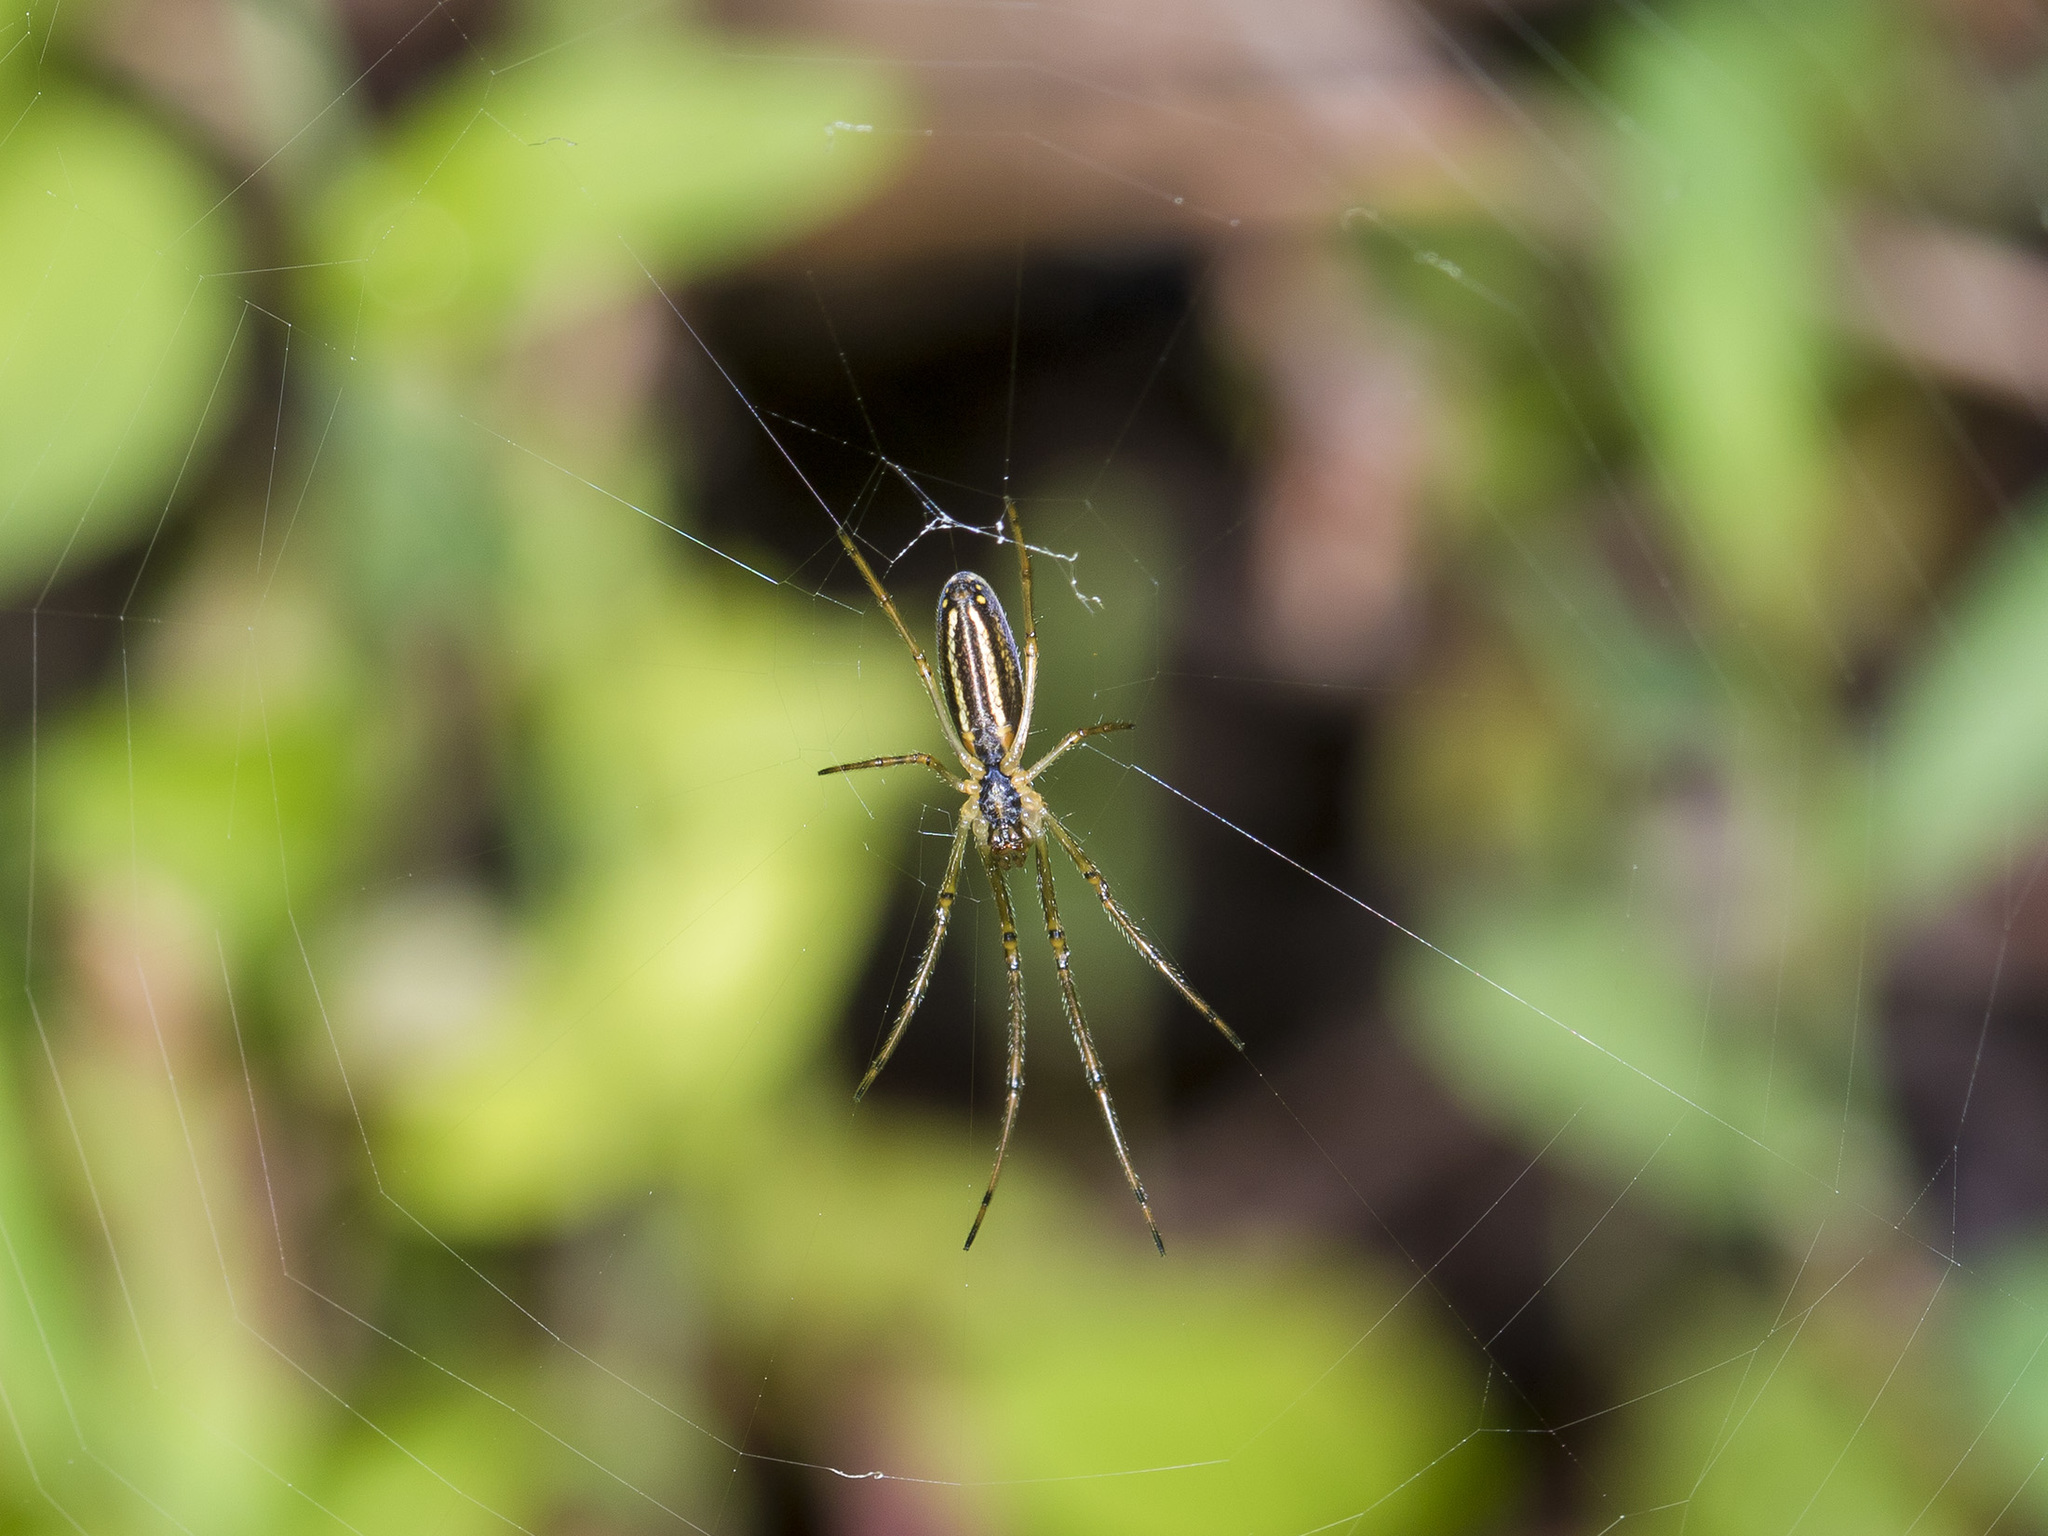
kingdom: Animalia
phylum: Arthropoda
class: Arachnida
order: Araneae
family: Tetragnathidae
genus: Tetragnatha
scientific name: Tetragnatha pinicola
